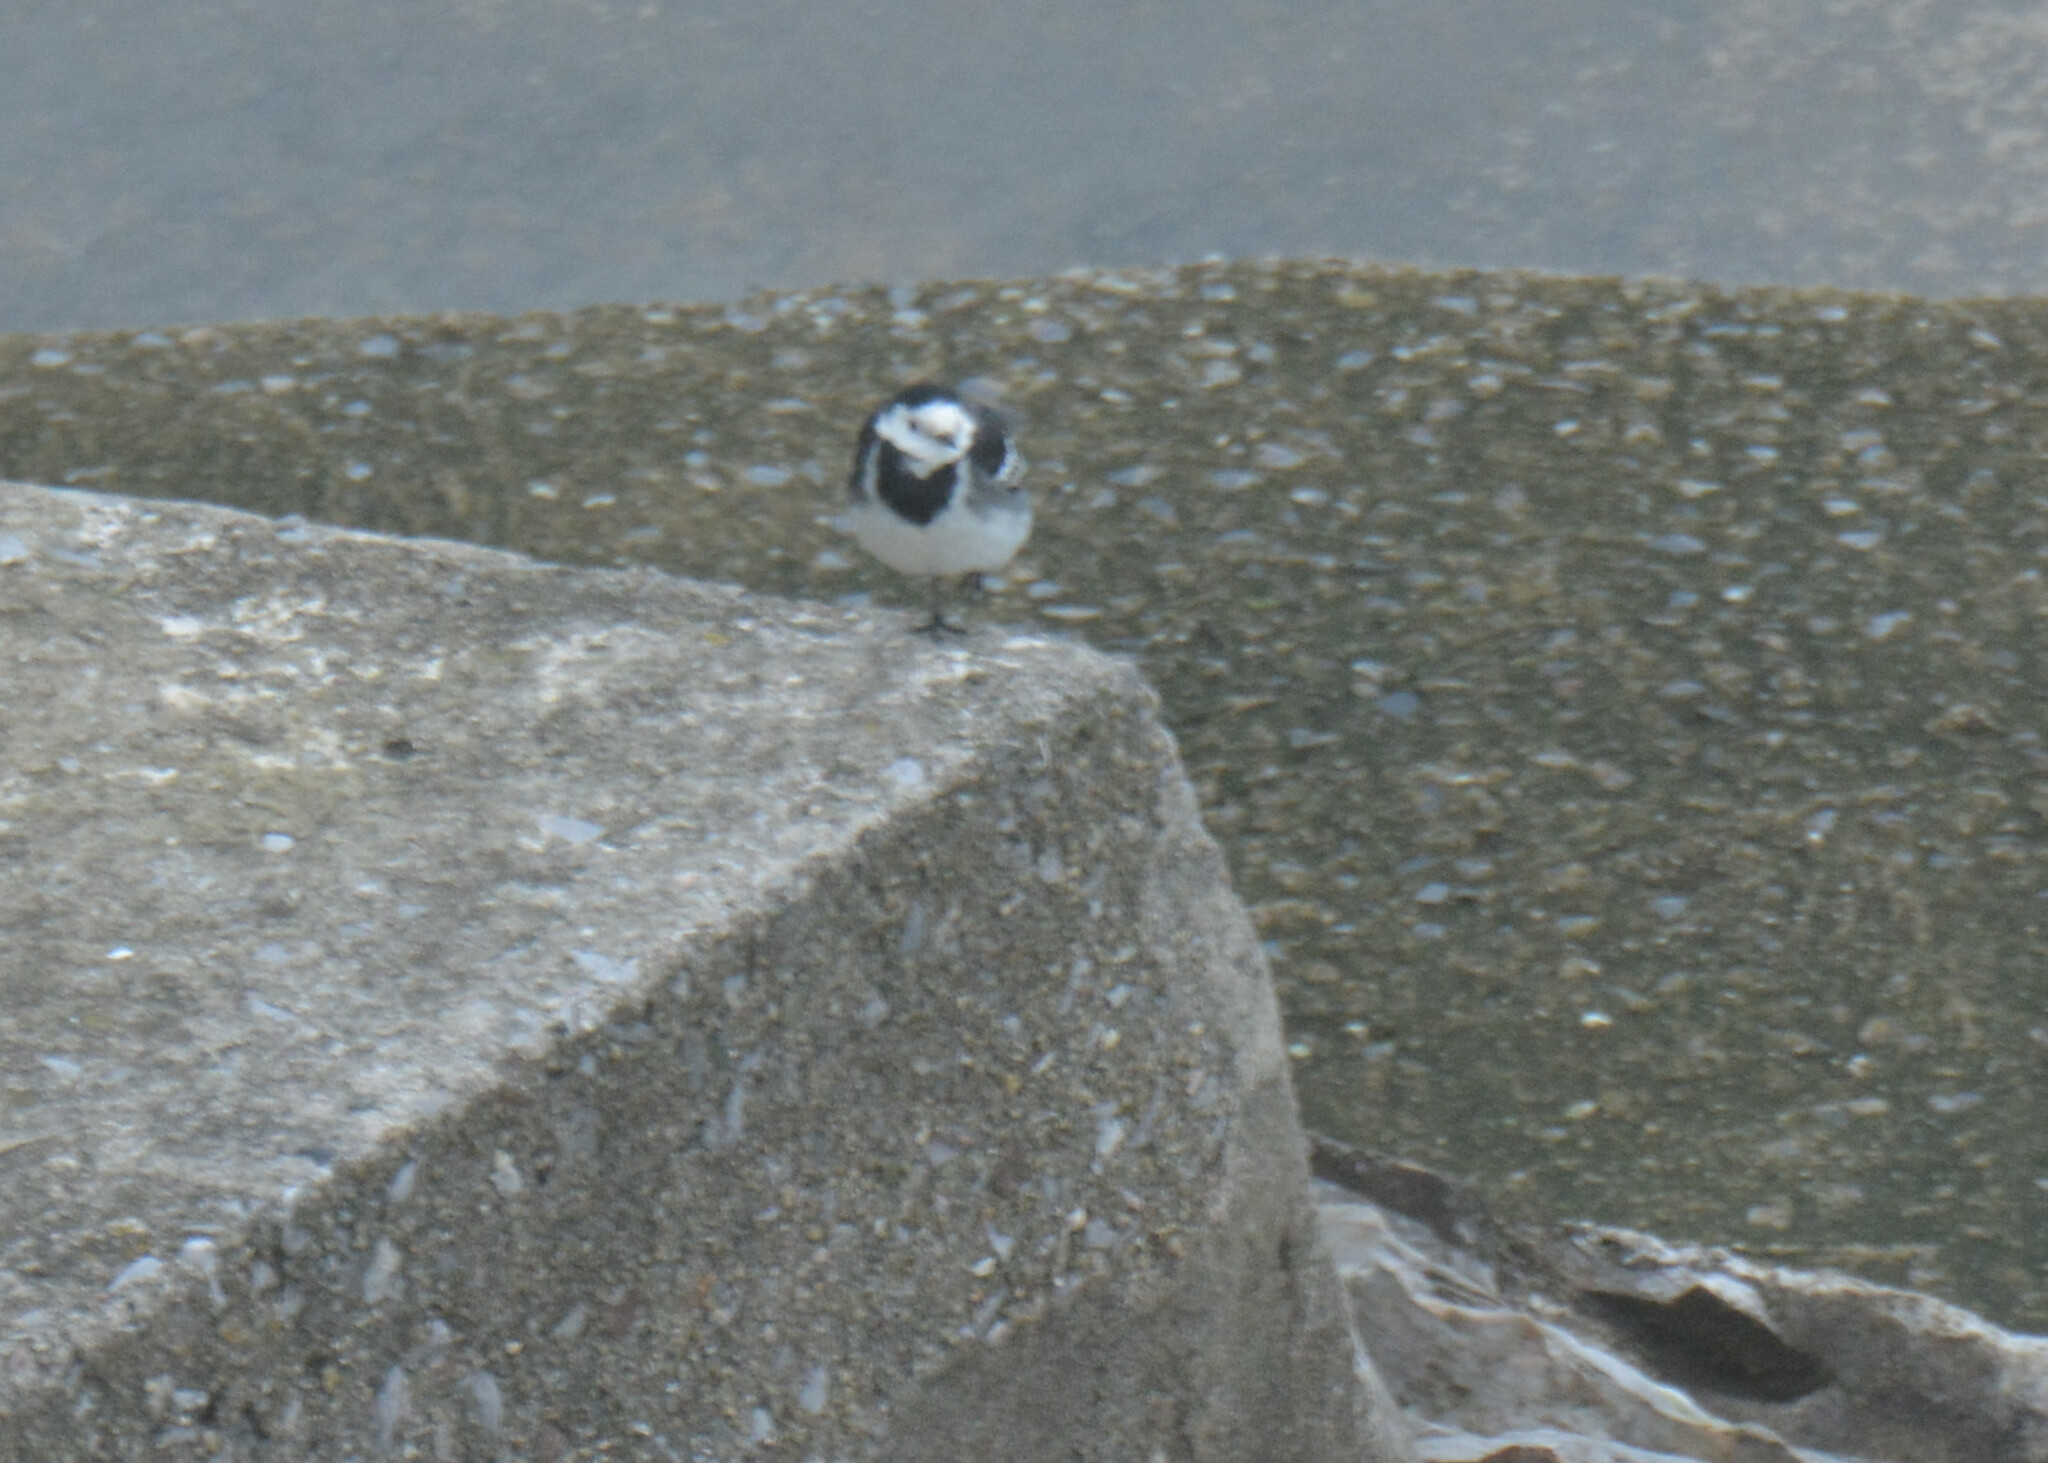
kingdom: Animalia
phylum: Chordata
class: Aves
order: Passeriformes
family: Motacillidae
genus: Motacilla
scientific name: Motacilla alba
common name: White wagtail
